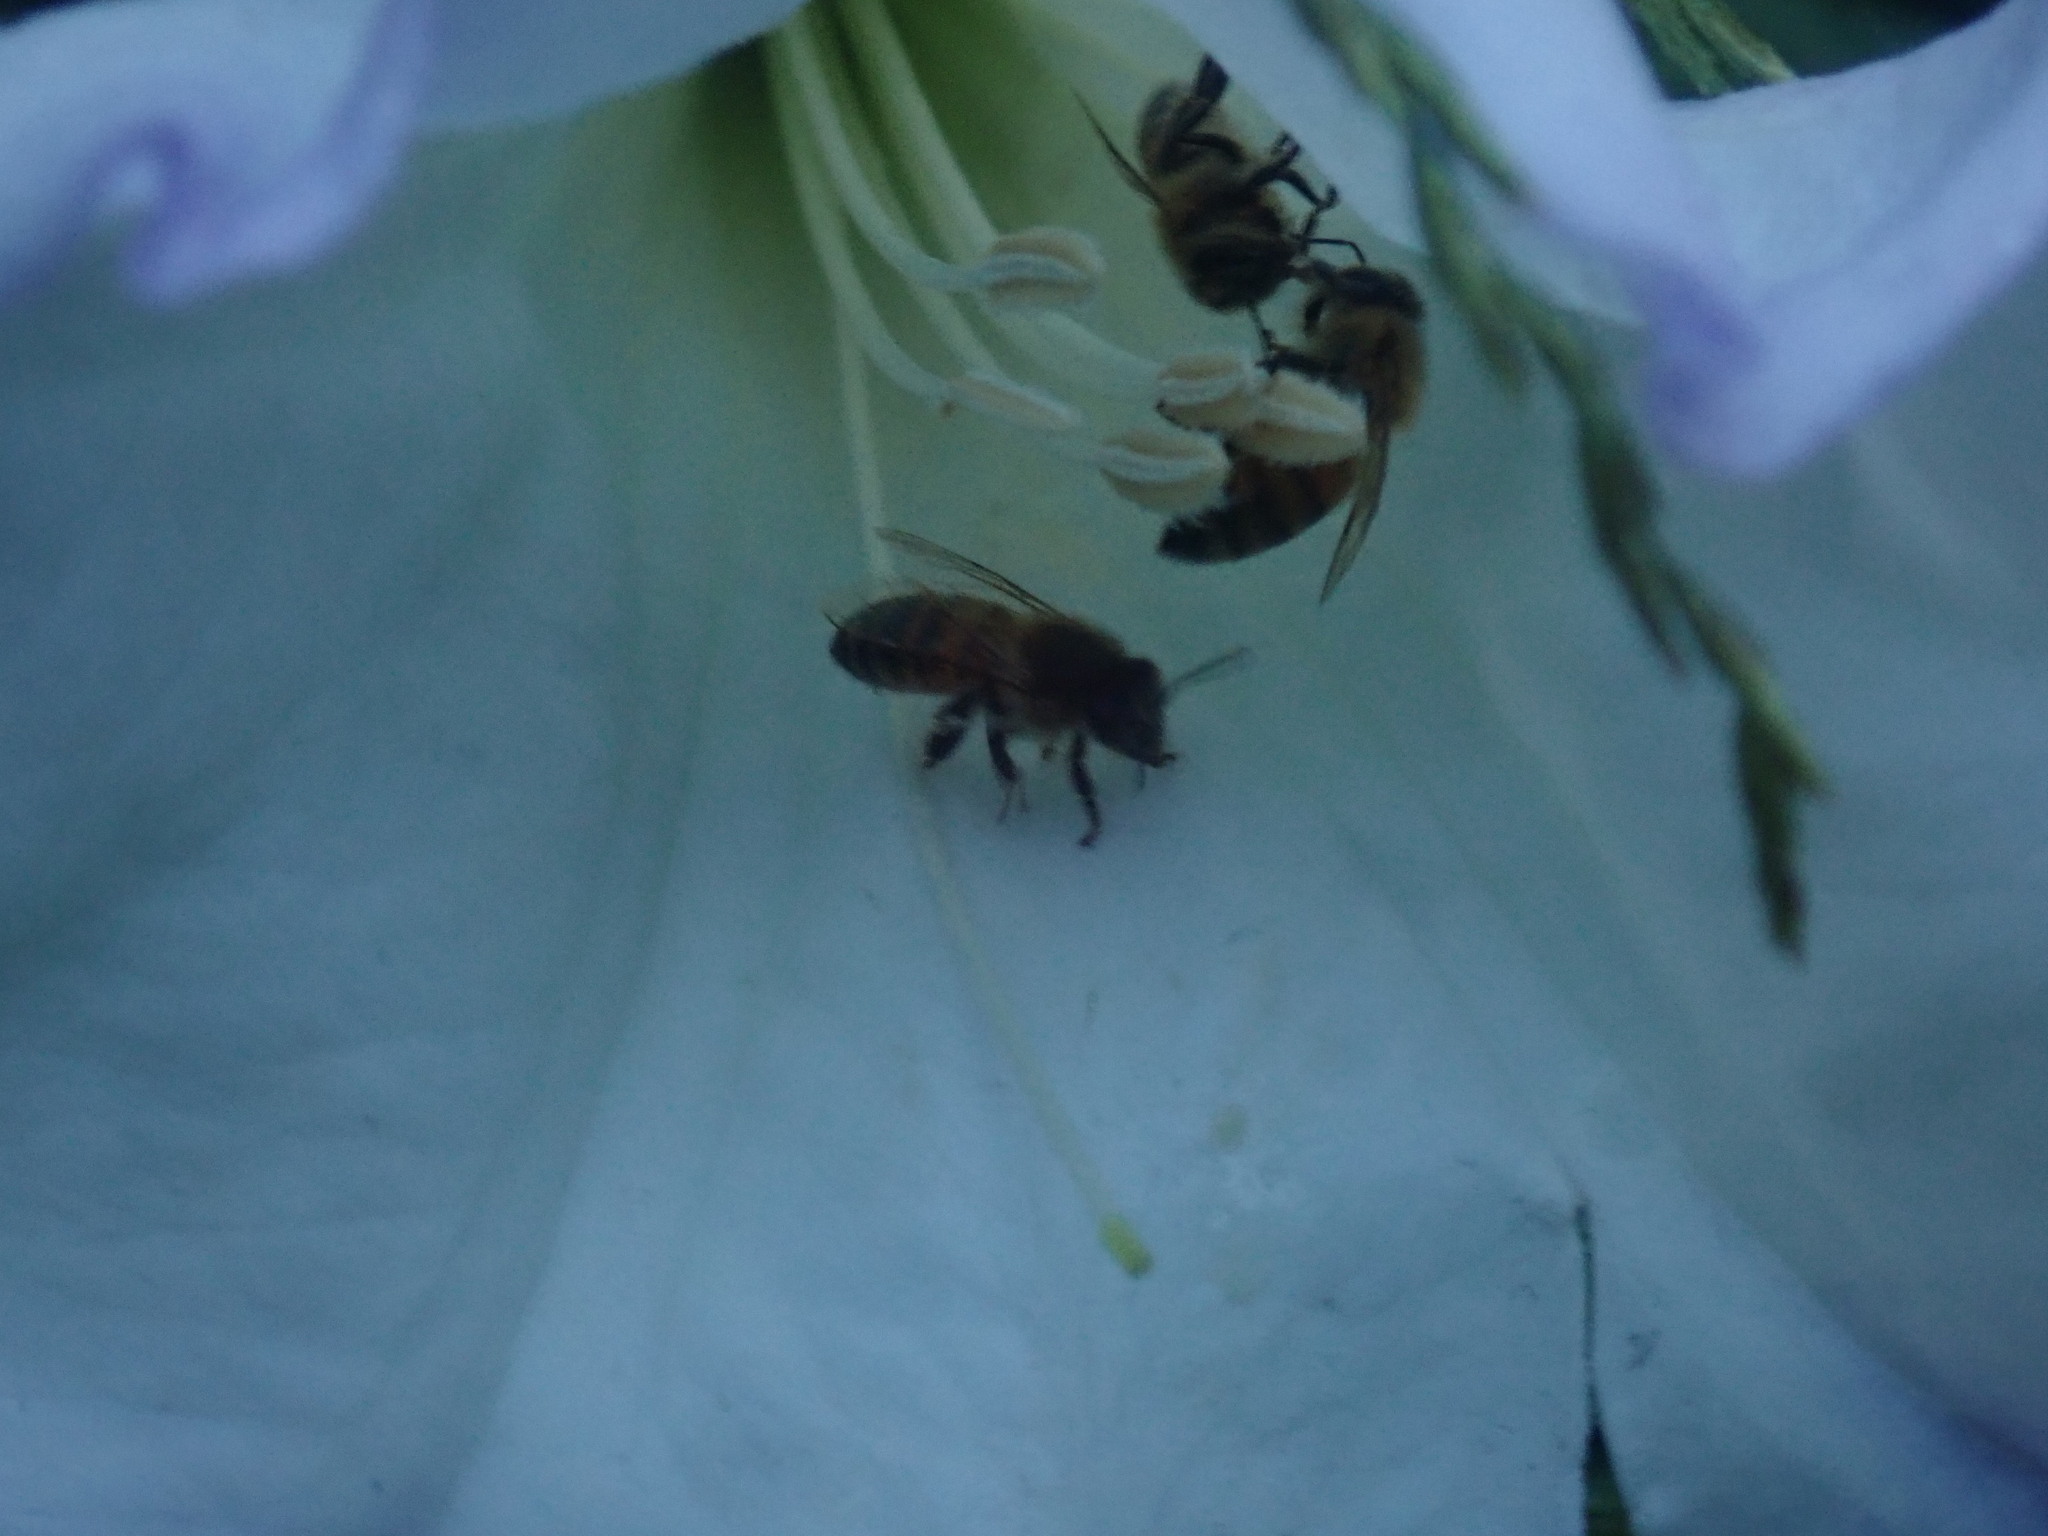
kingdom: Animalia
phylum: Arthropoda
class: Insecta
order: Hymenoptera
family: Apidae
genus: Apis
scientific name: Apis mellifera
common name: Honey bee
